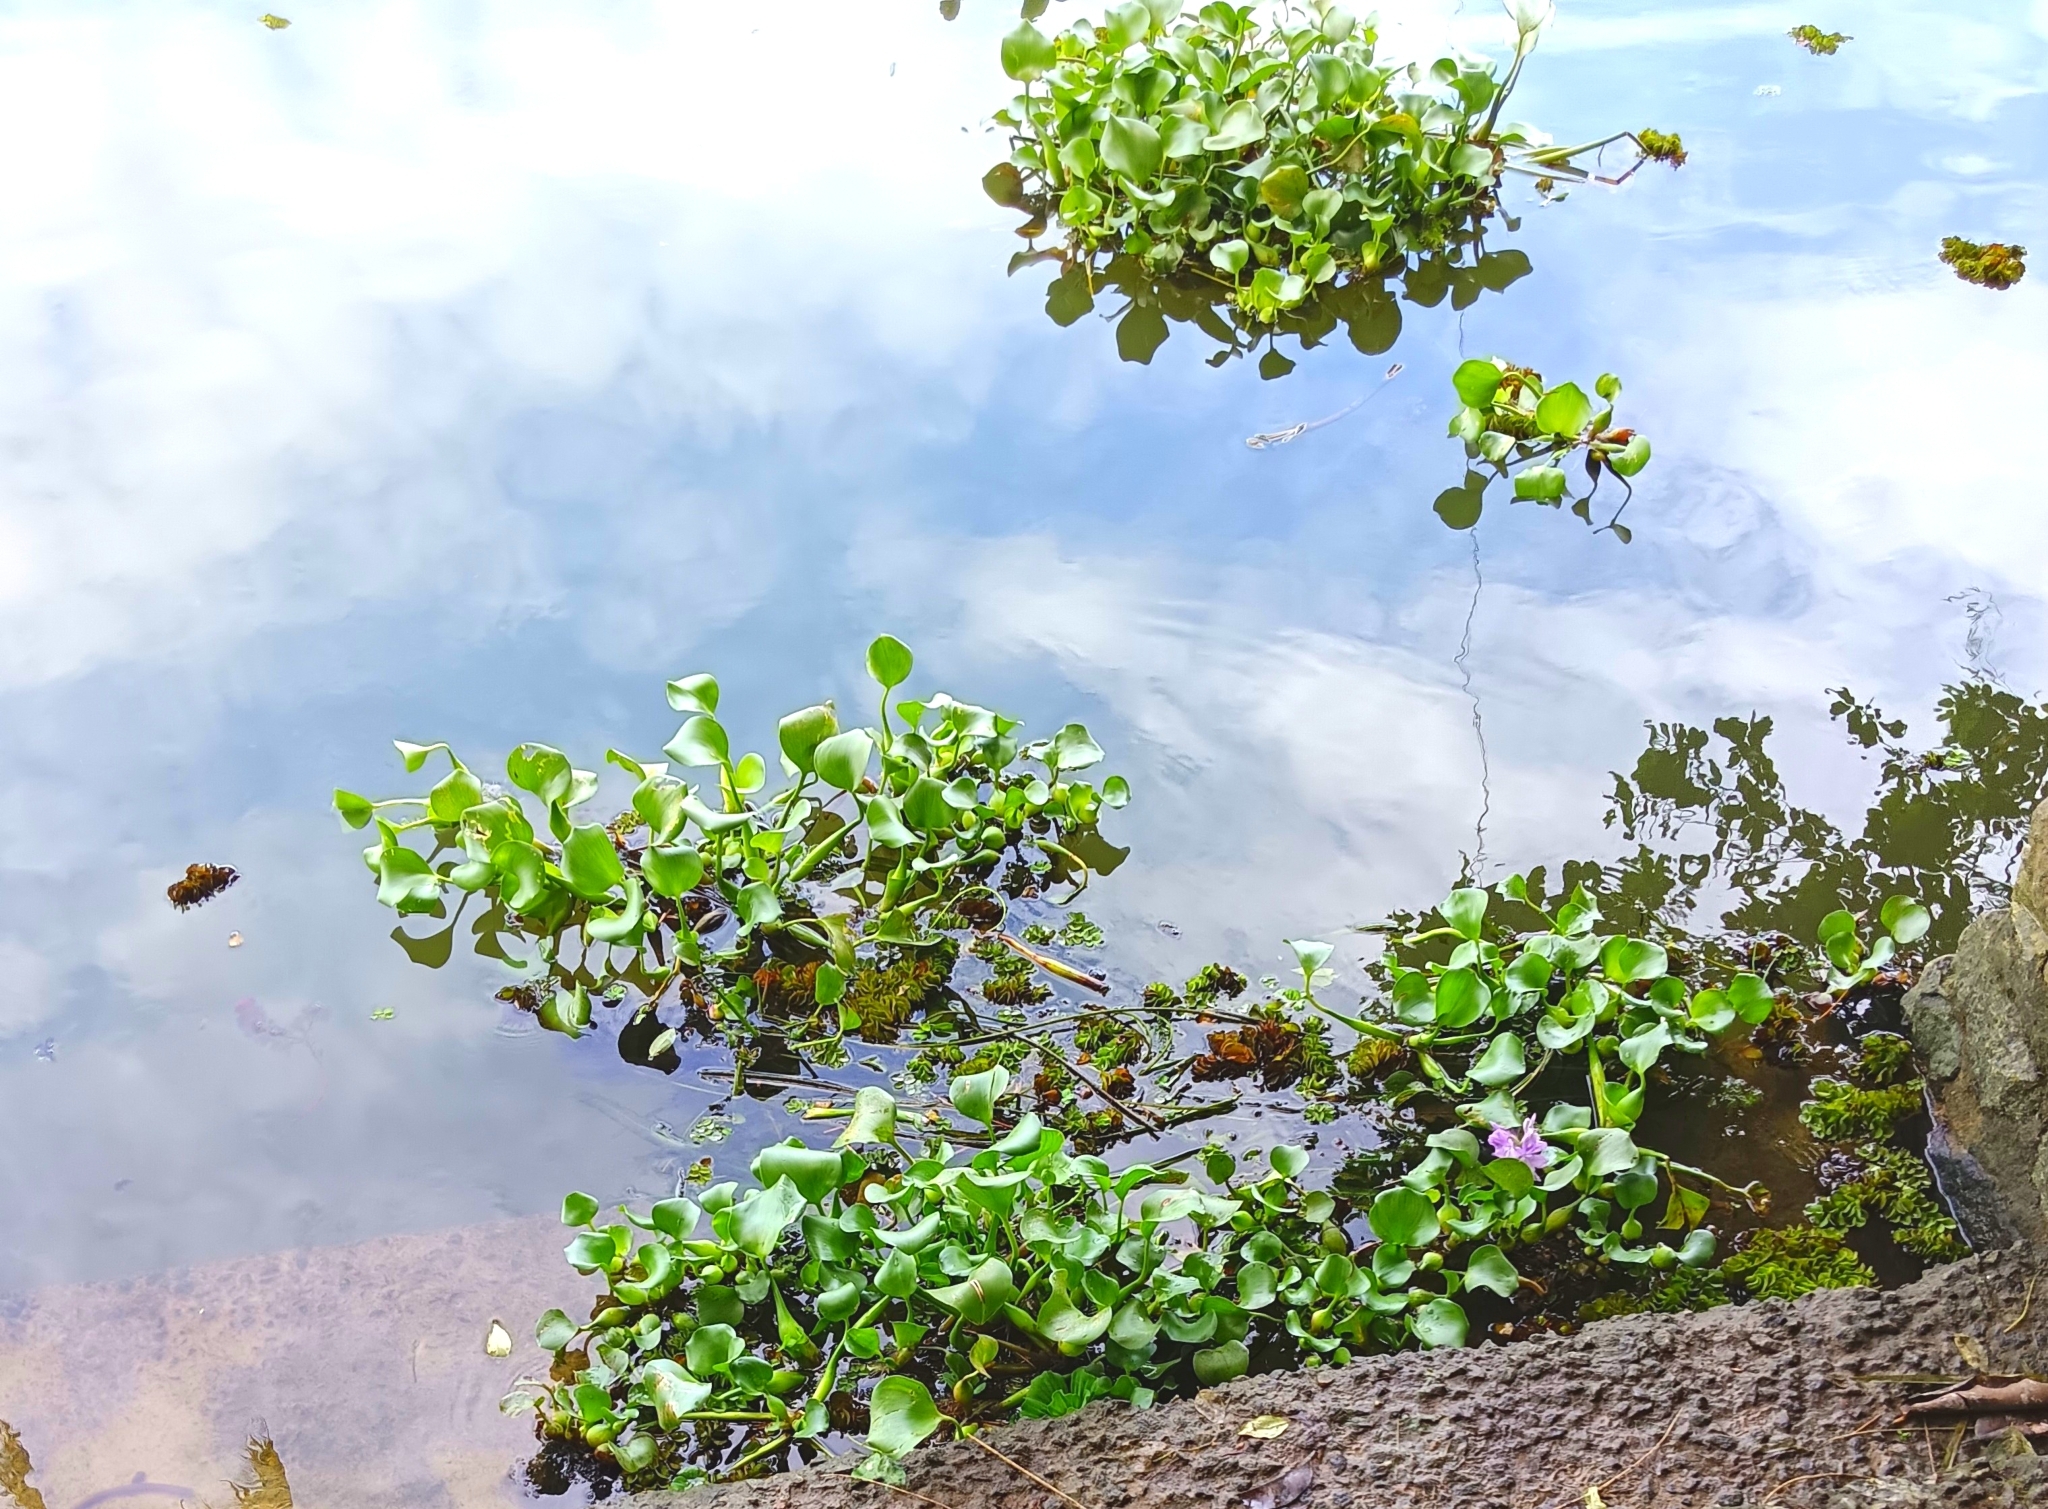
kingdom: Plantae
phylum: Tracheophyta
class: Liliopsida
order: Commelinales
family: Pontederiaceae
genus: Pontederia
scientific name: Pontederia crassipes
